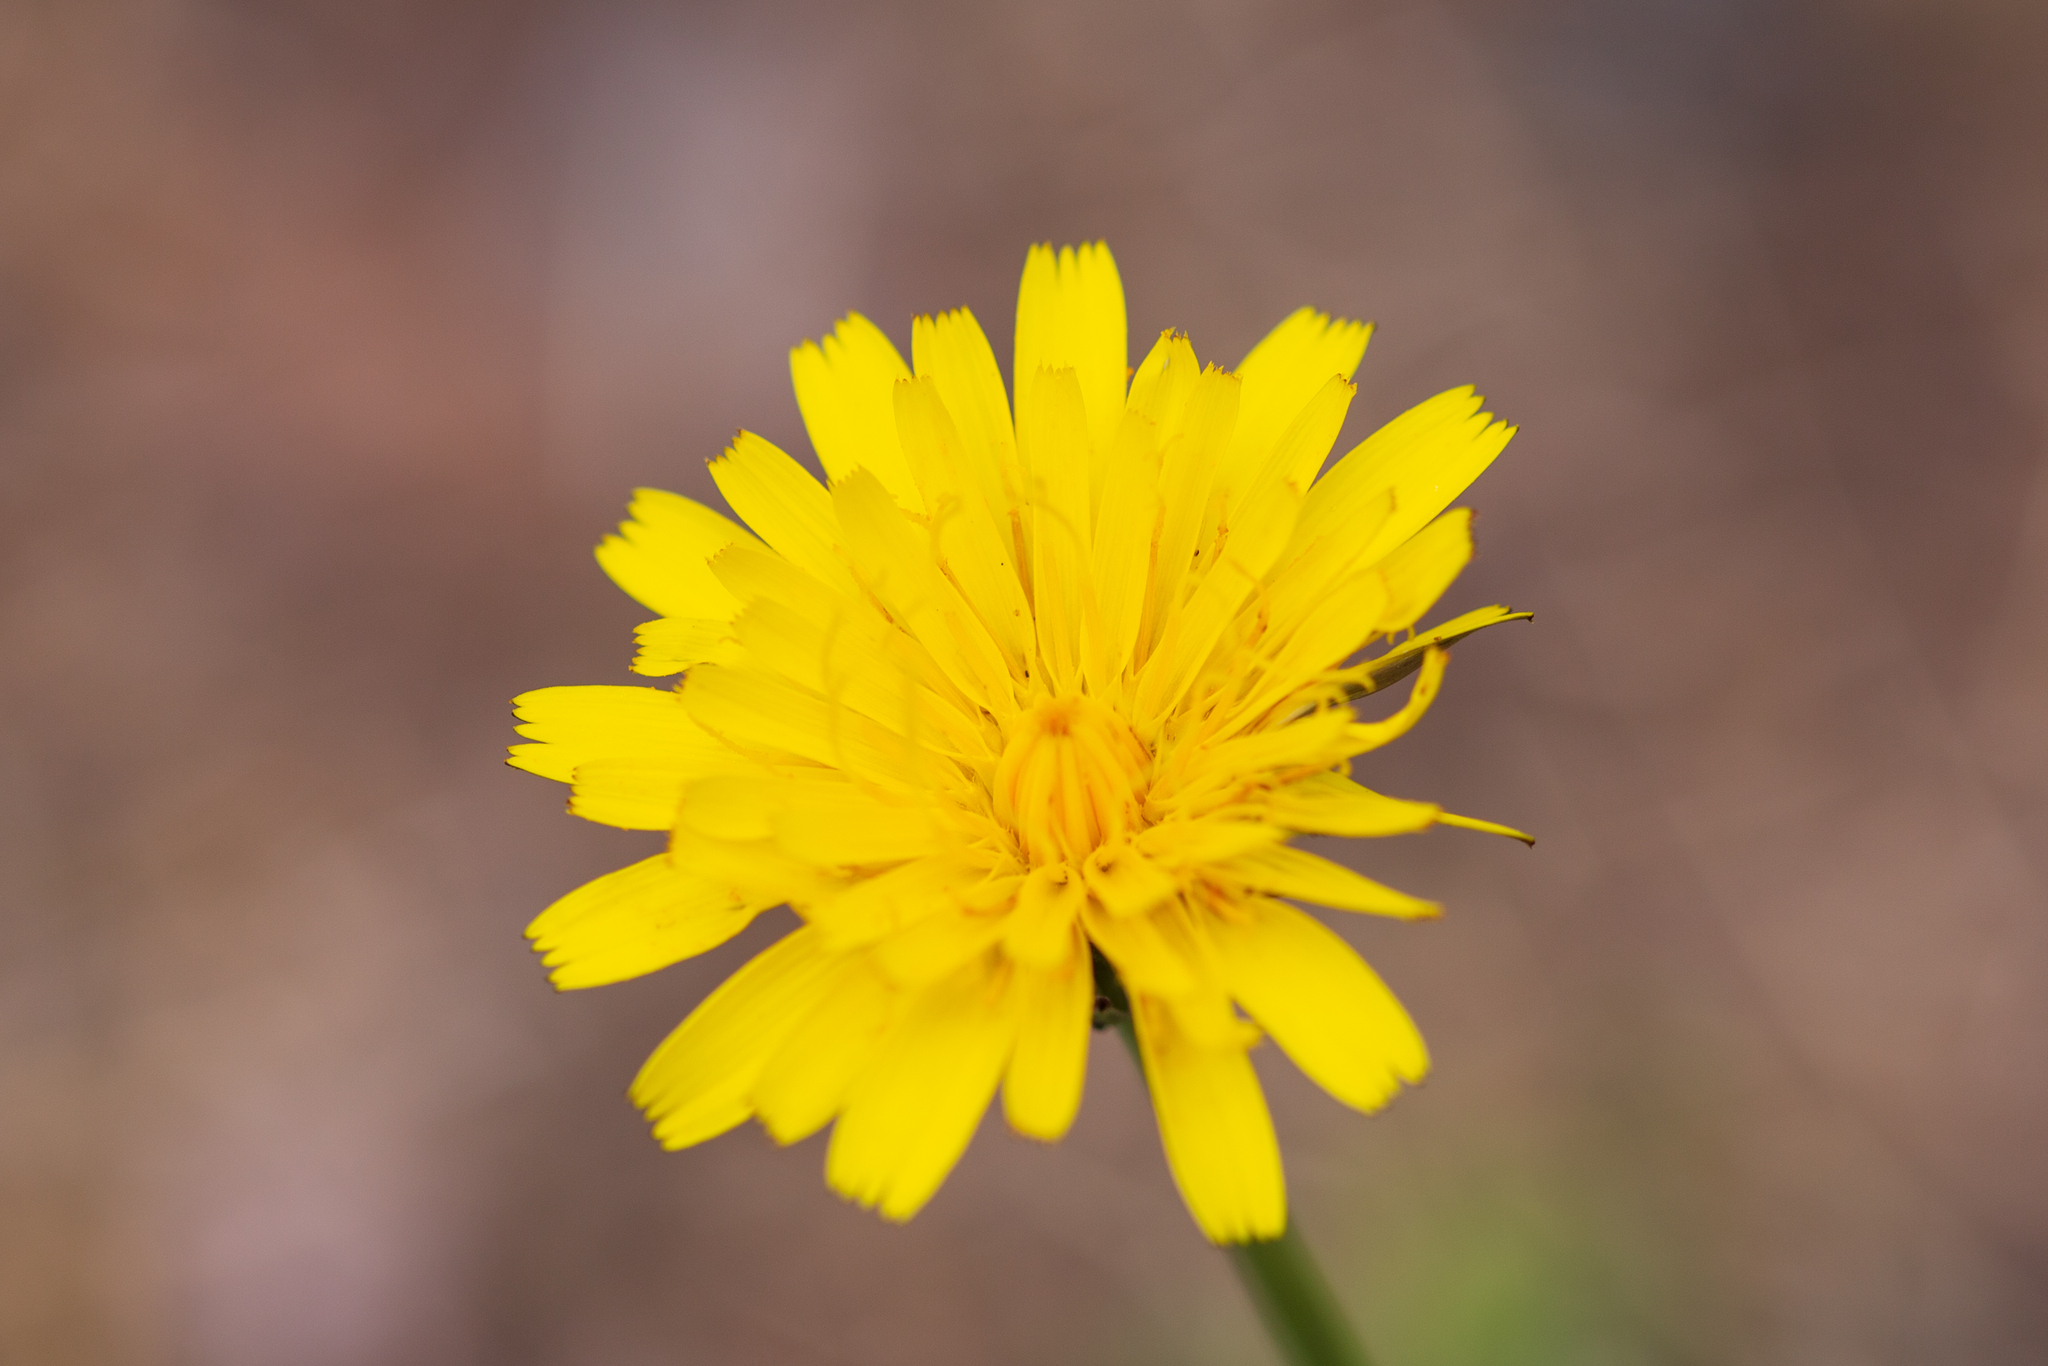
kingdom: Plantae
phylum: Tracheophyta
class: Magnoliopsida
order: Asterales
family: Asteraceae
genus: Hypochaeris
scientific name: Hypochaeris radicata
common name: Flatweed
